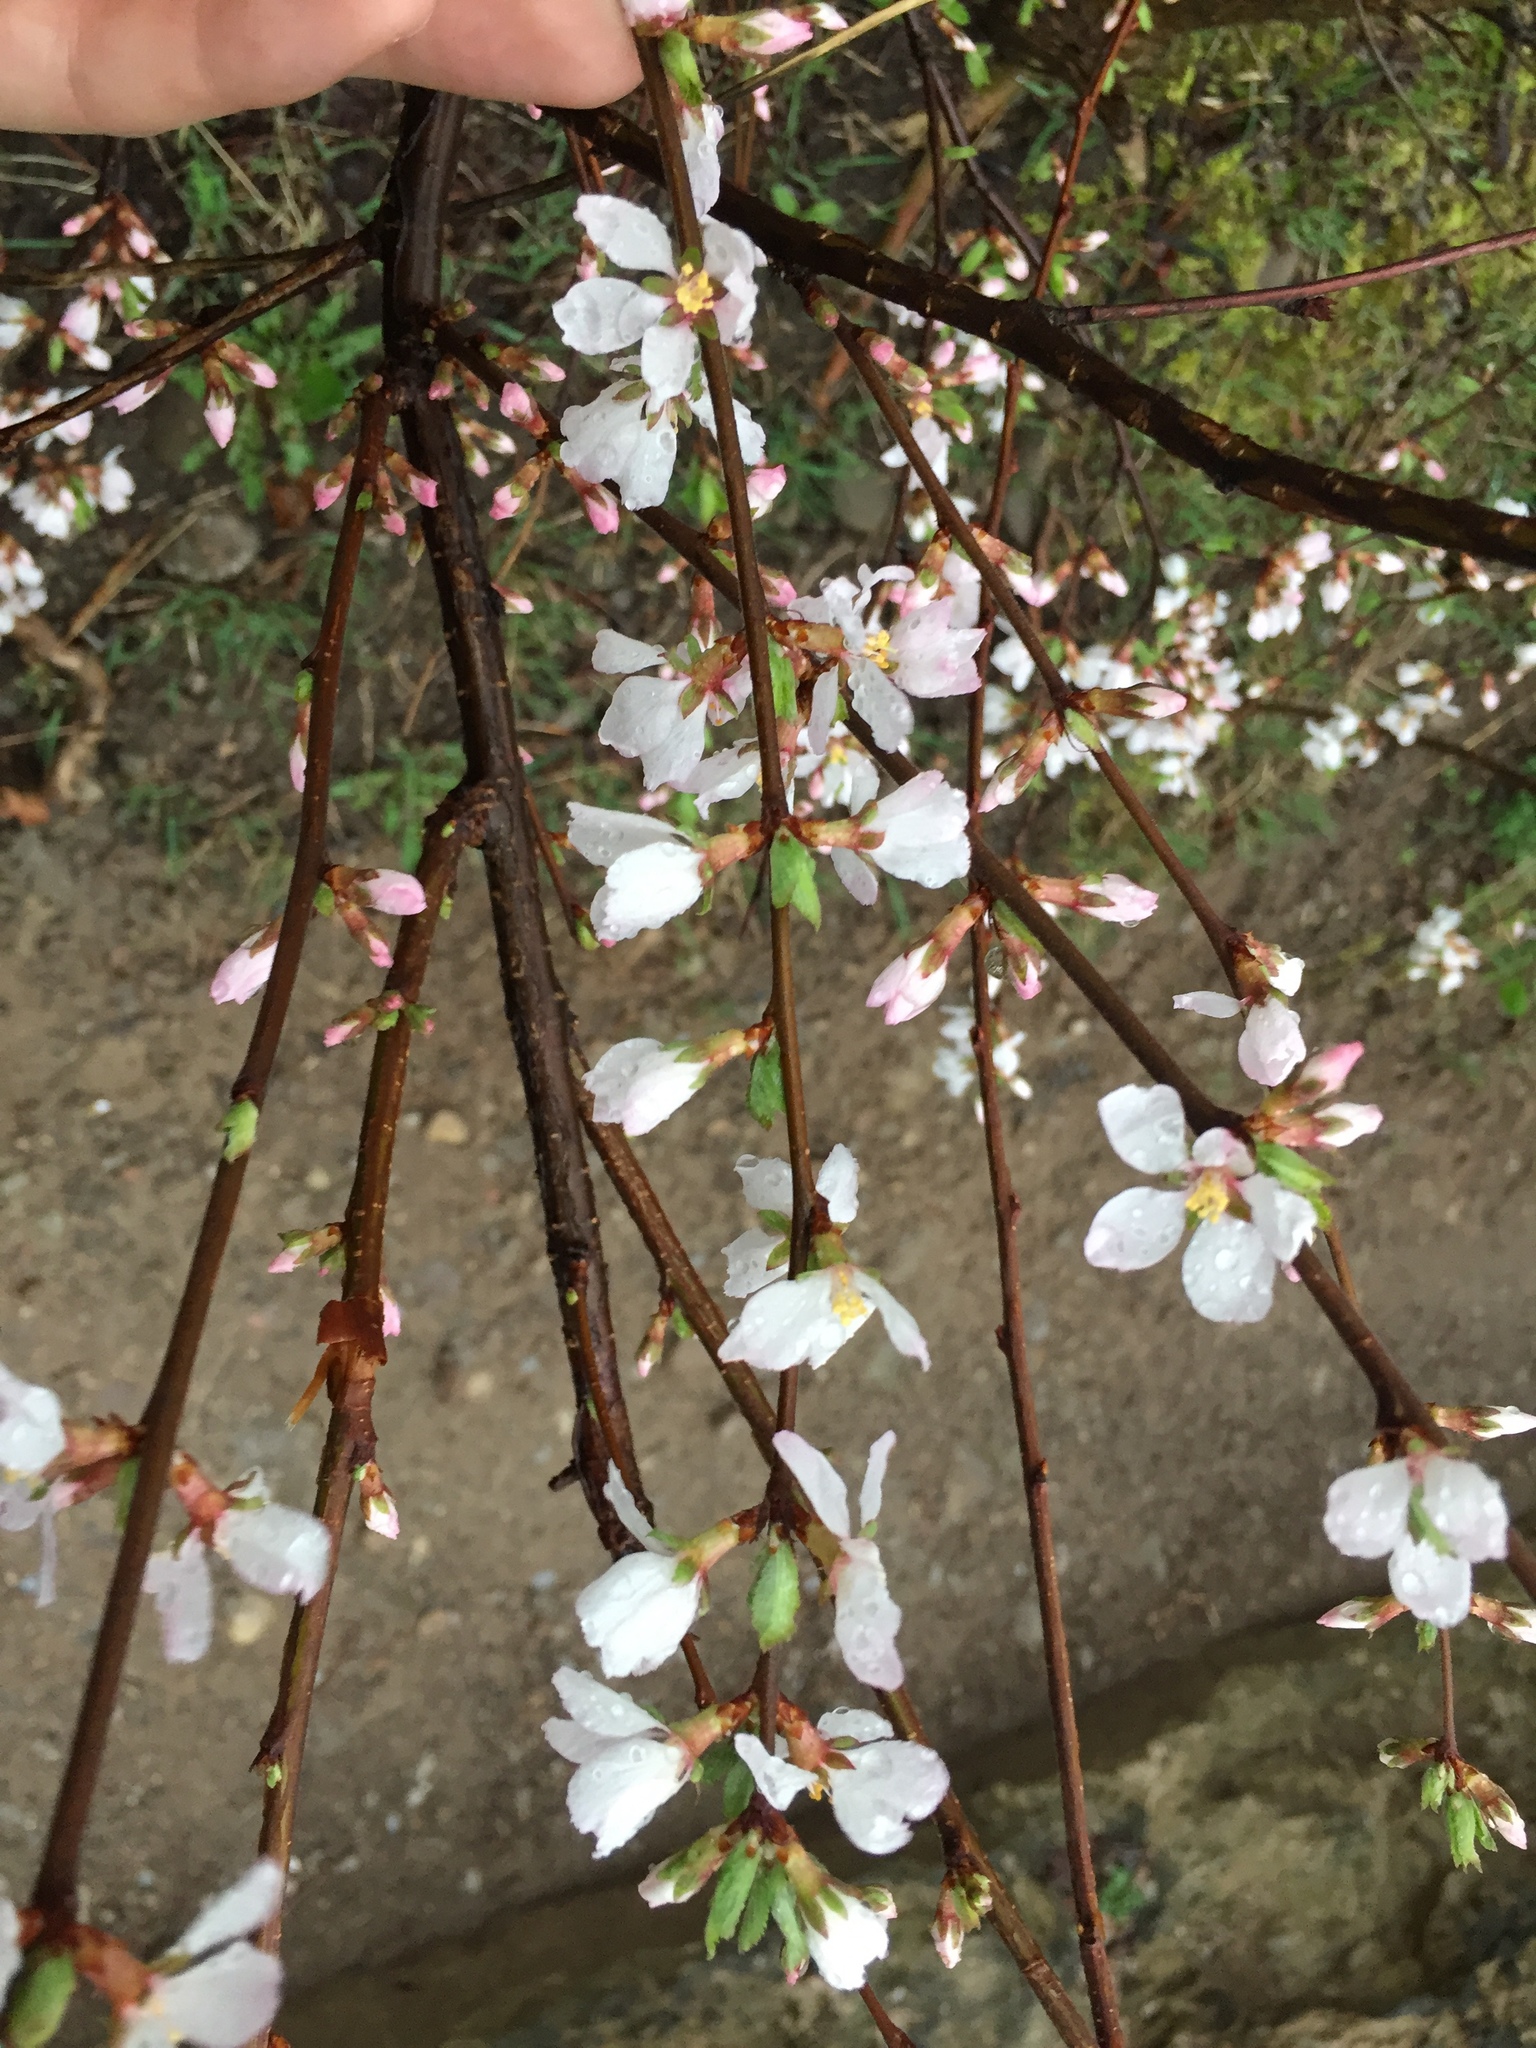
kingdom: Plantae
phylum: Tracheophyta
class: Magnoliopsida
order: Rosales
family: Rosaceae
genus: Prunus
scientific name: Prunus tomentosa
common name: Nanking cherry
